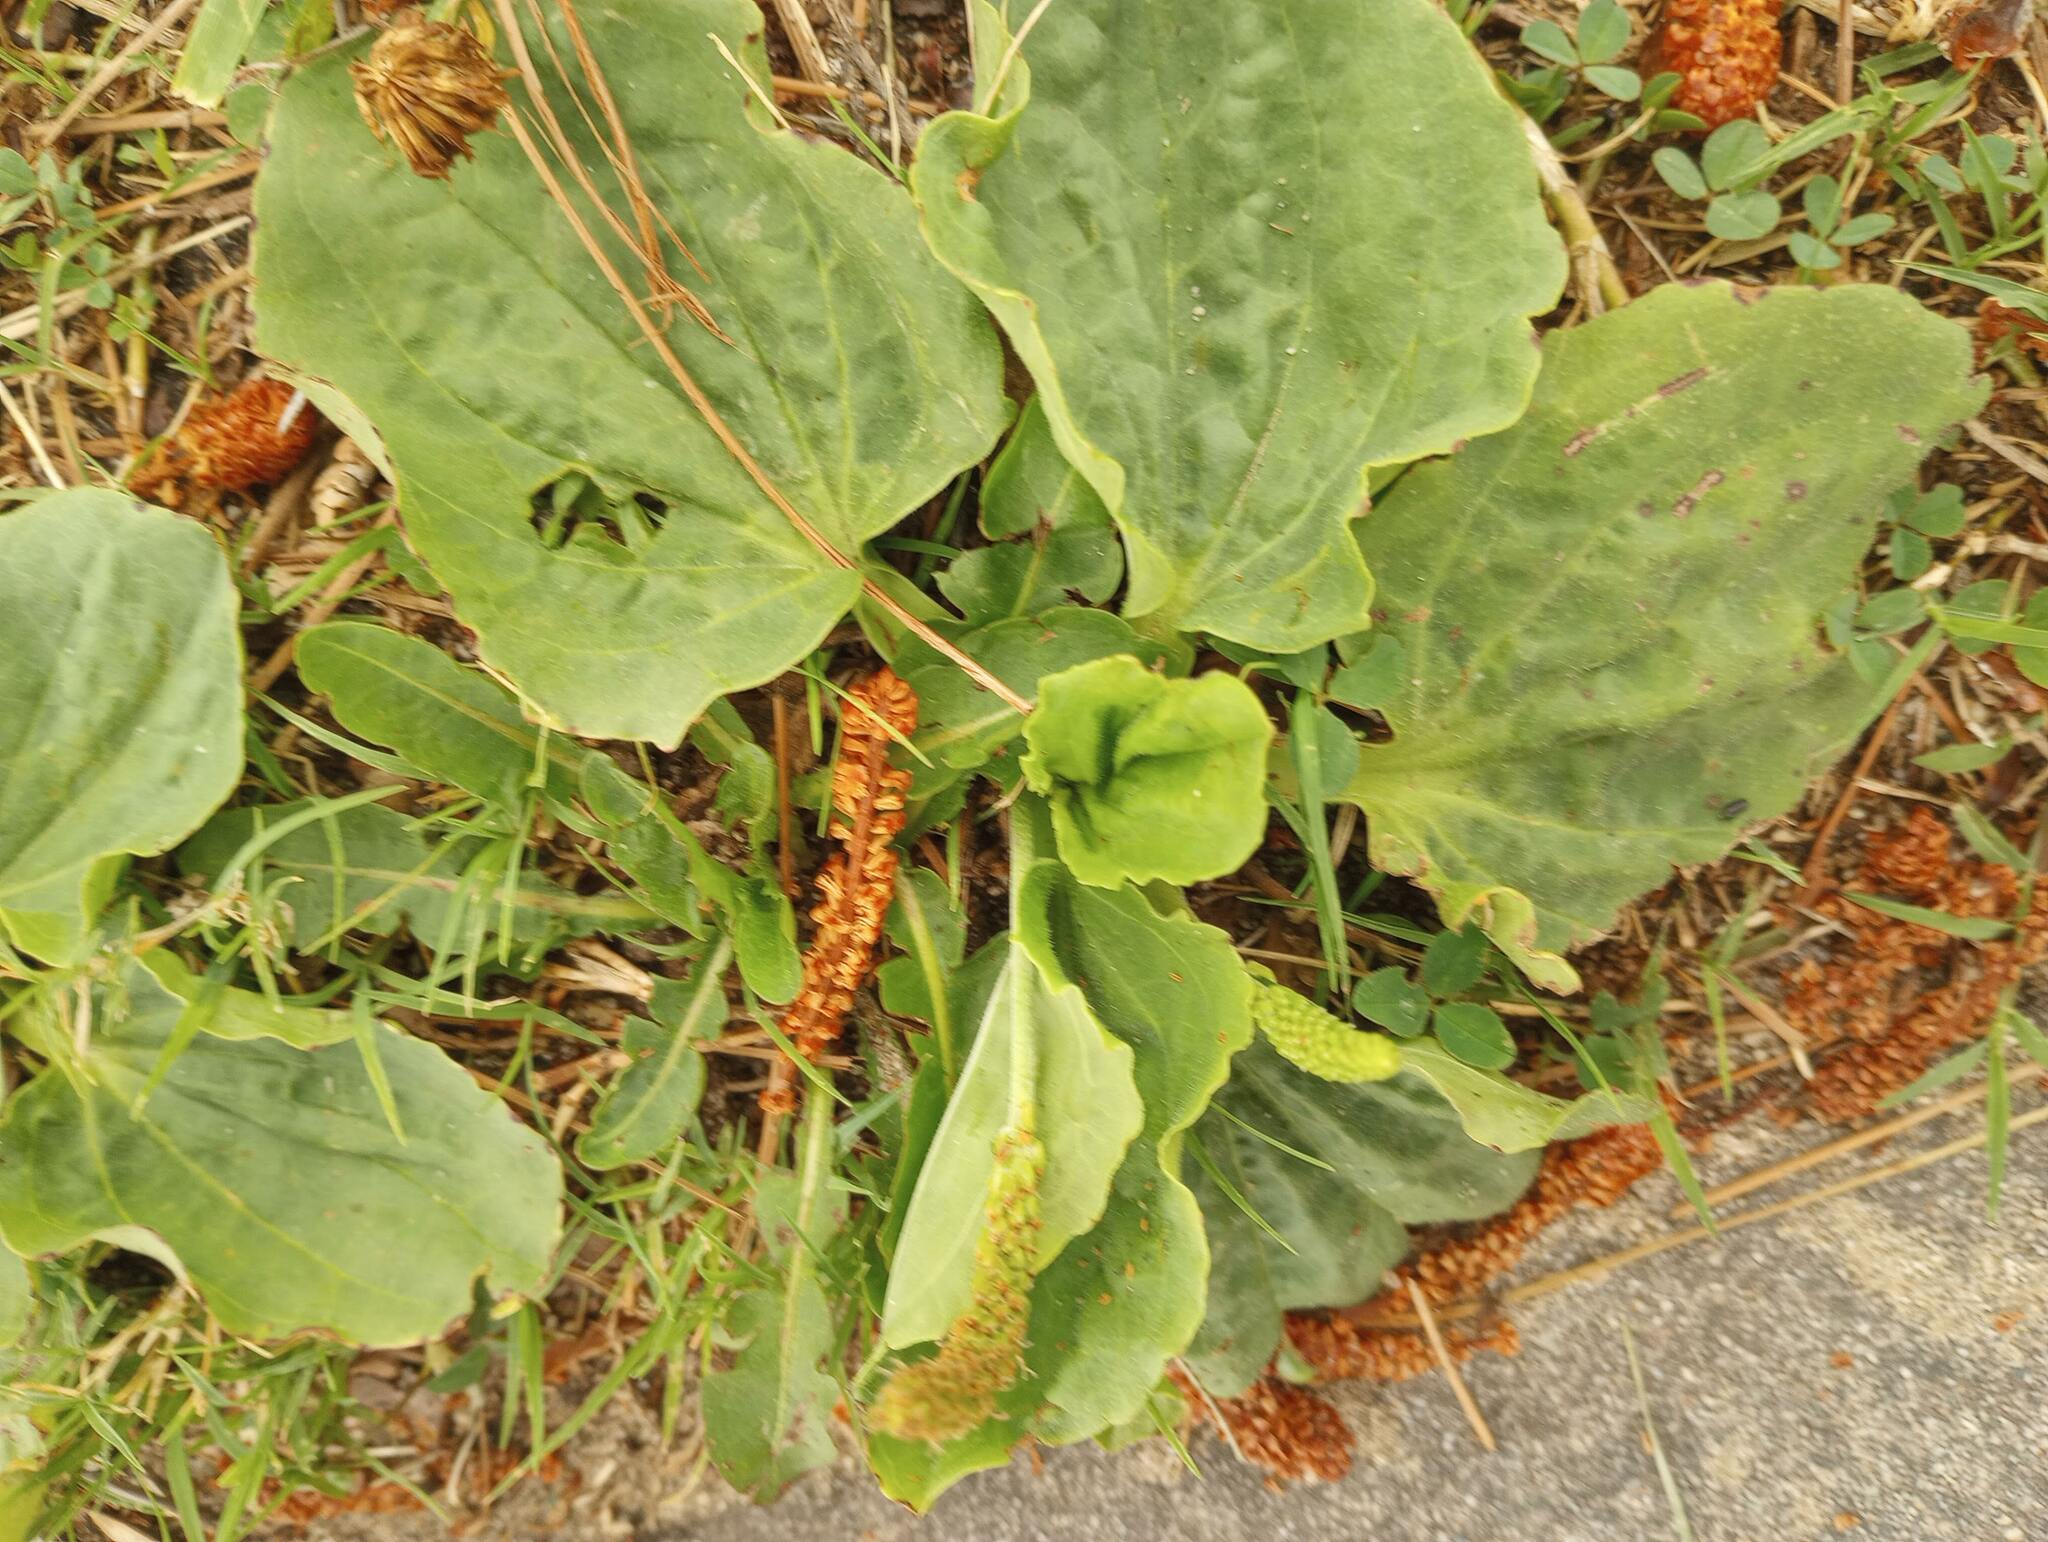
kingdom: Plantae
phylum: Tracheophyta
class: Magnoliopsida
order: Lamiales
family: Plantaginaceae
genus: Plantago
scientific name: Plantago major
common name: Common plantain
